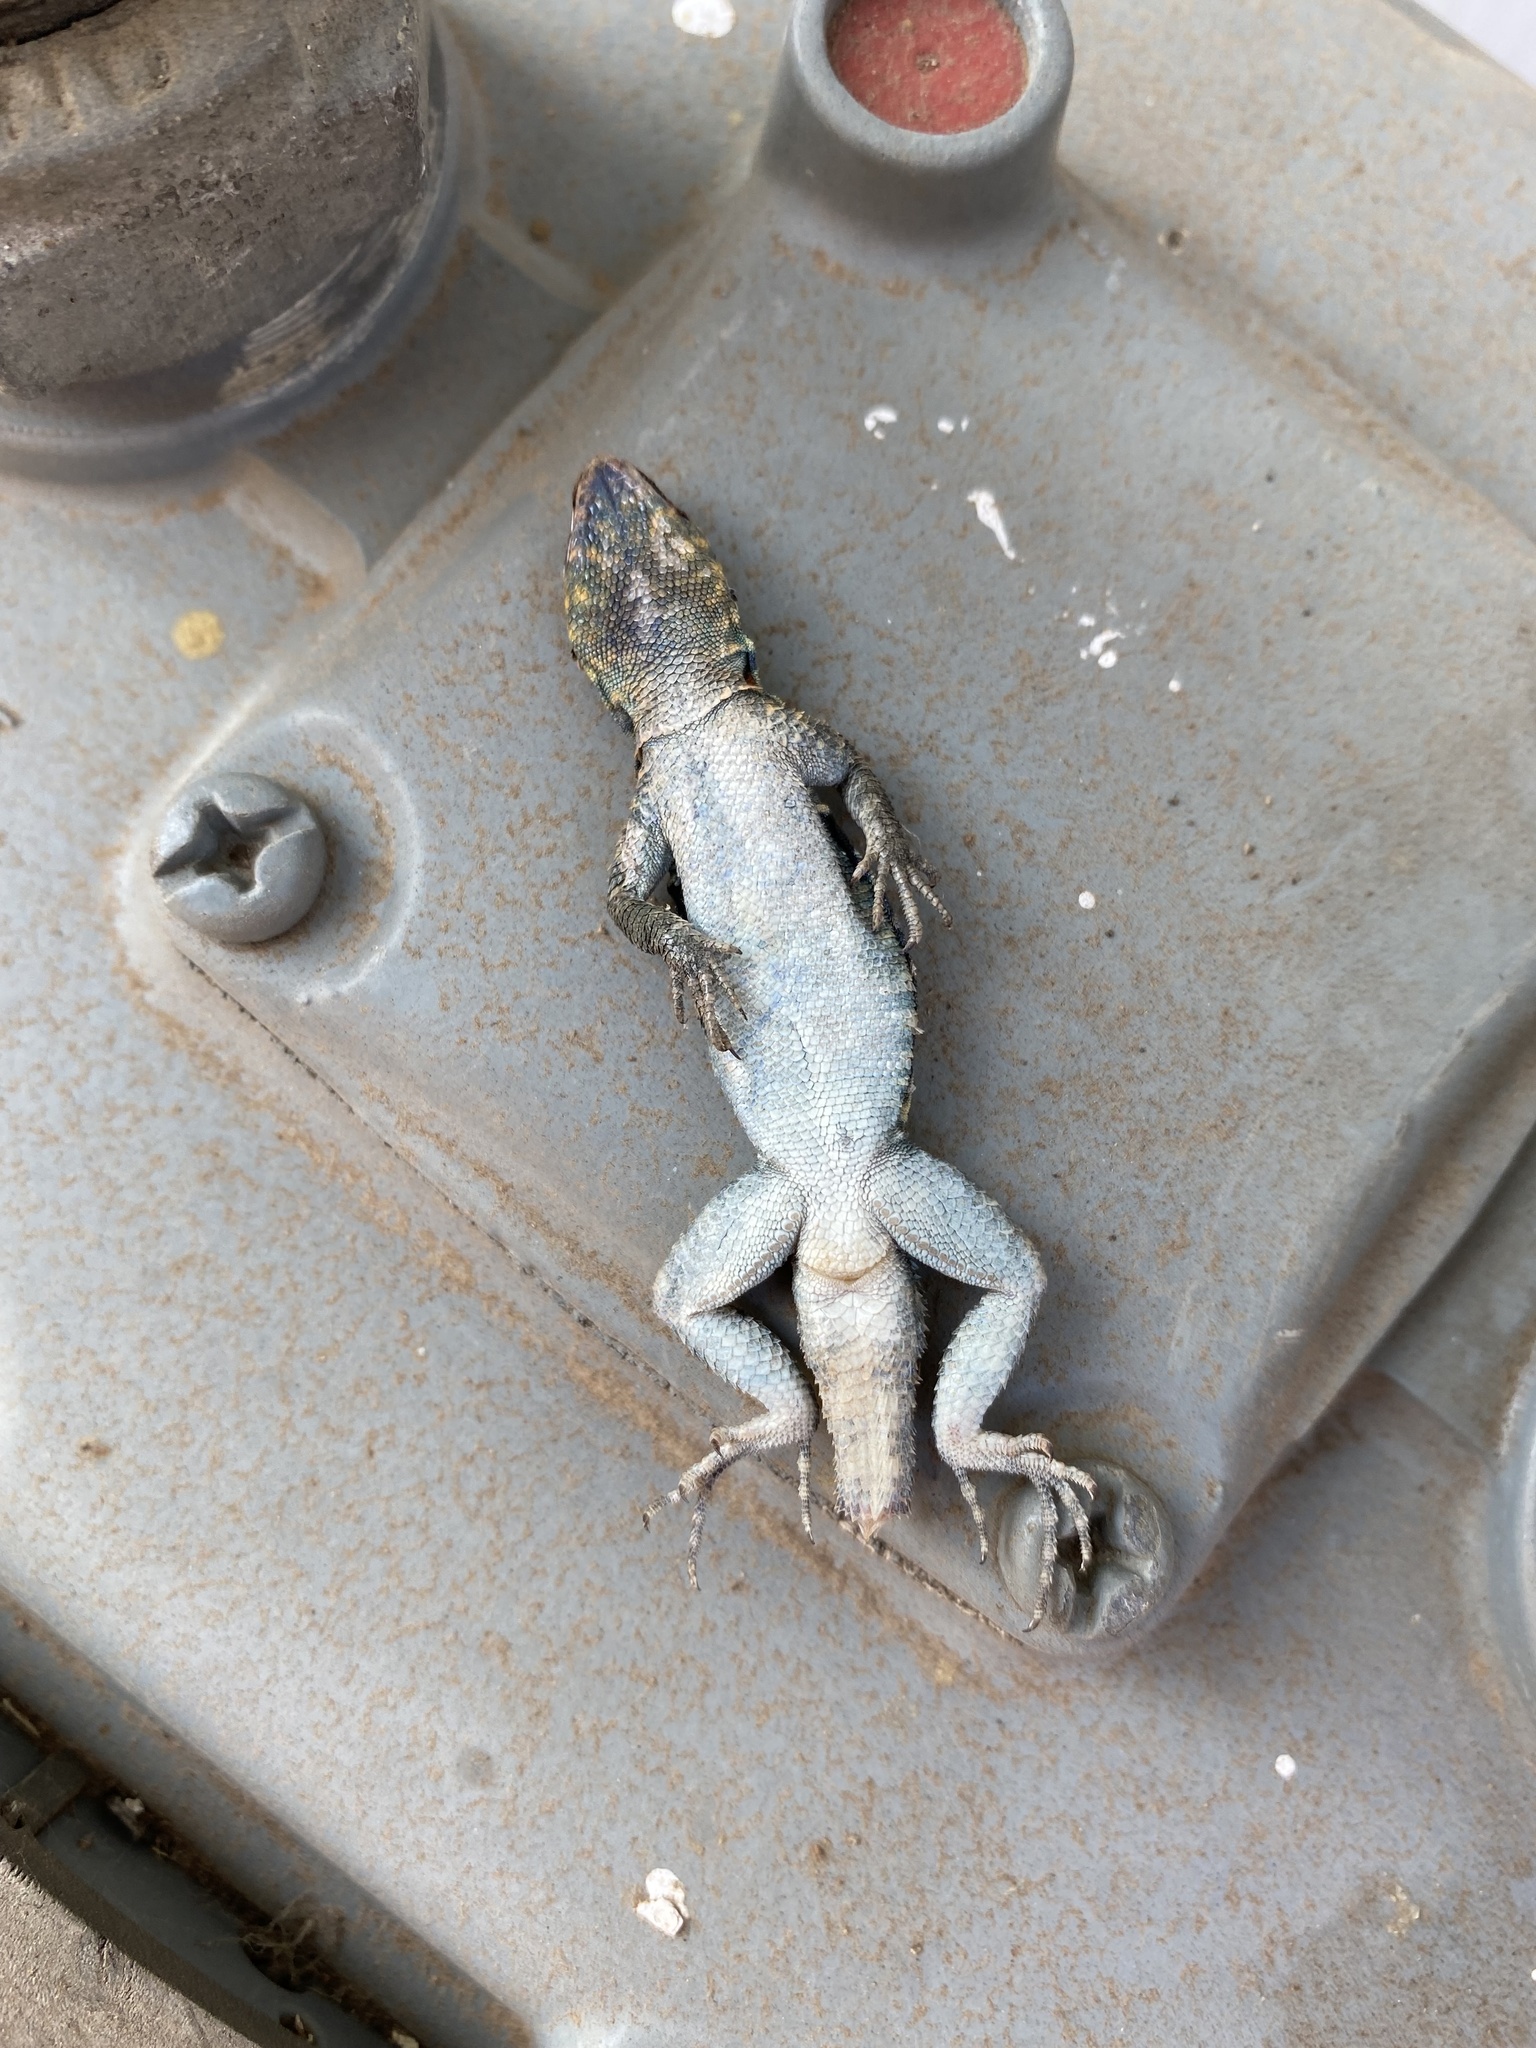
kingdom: Animalia
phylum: Chordata
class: Squamata
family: Phrynosomatidae
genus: Uta
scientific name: Uta stansburiana
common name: Side-blotched lizard
